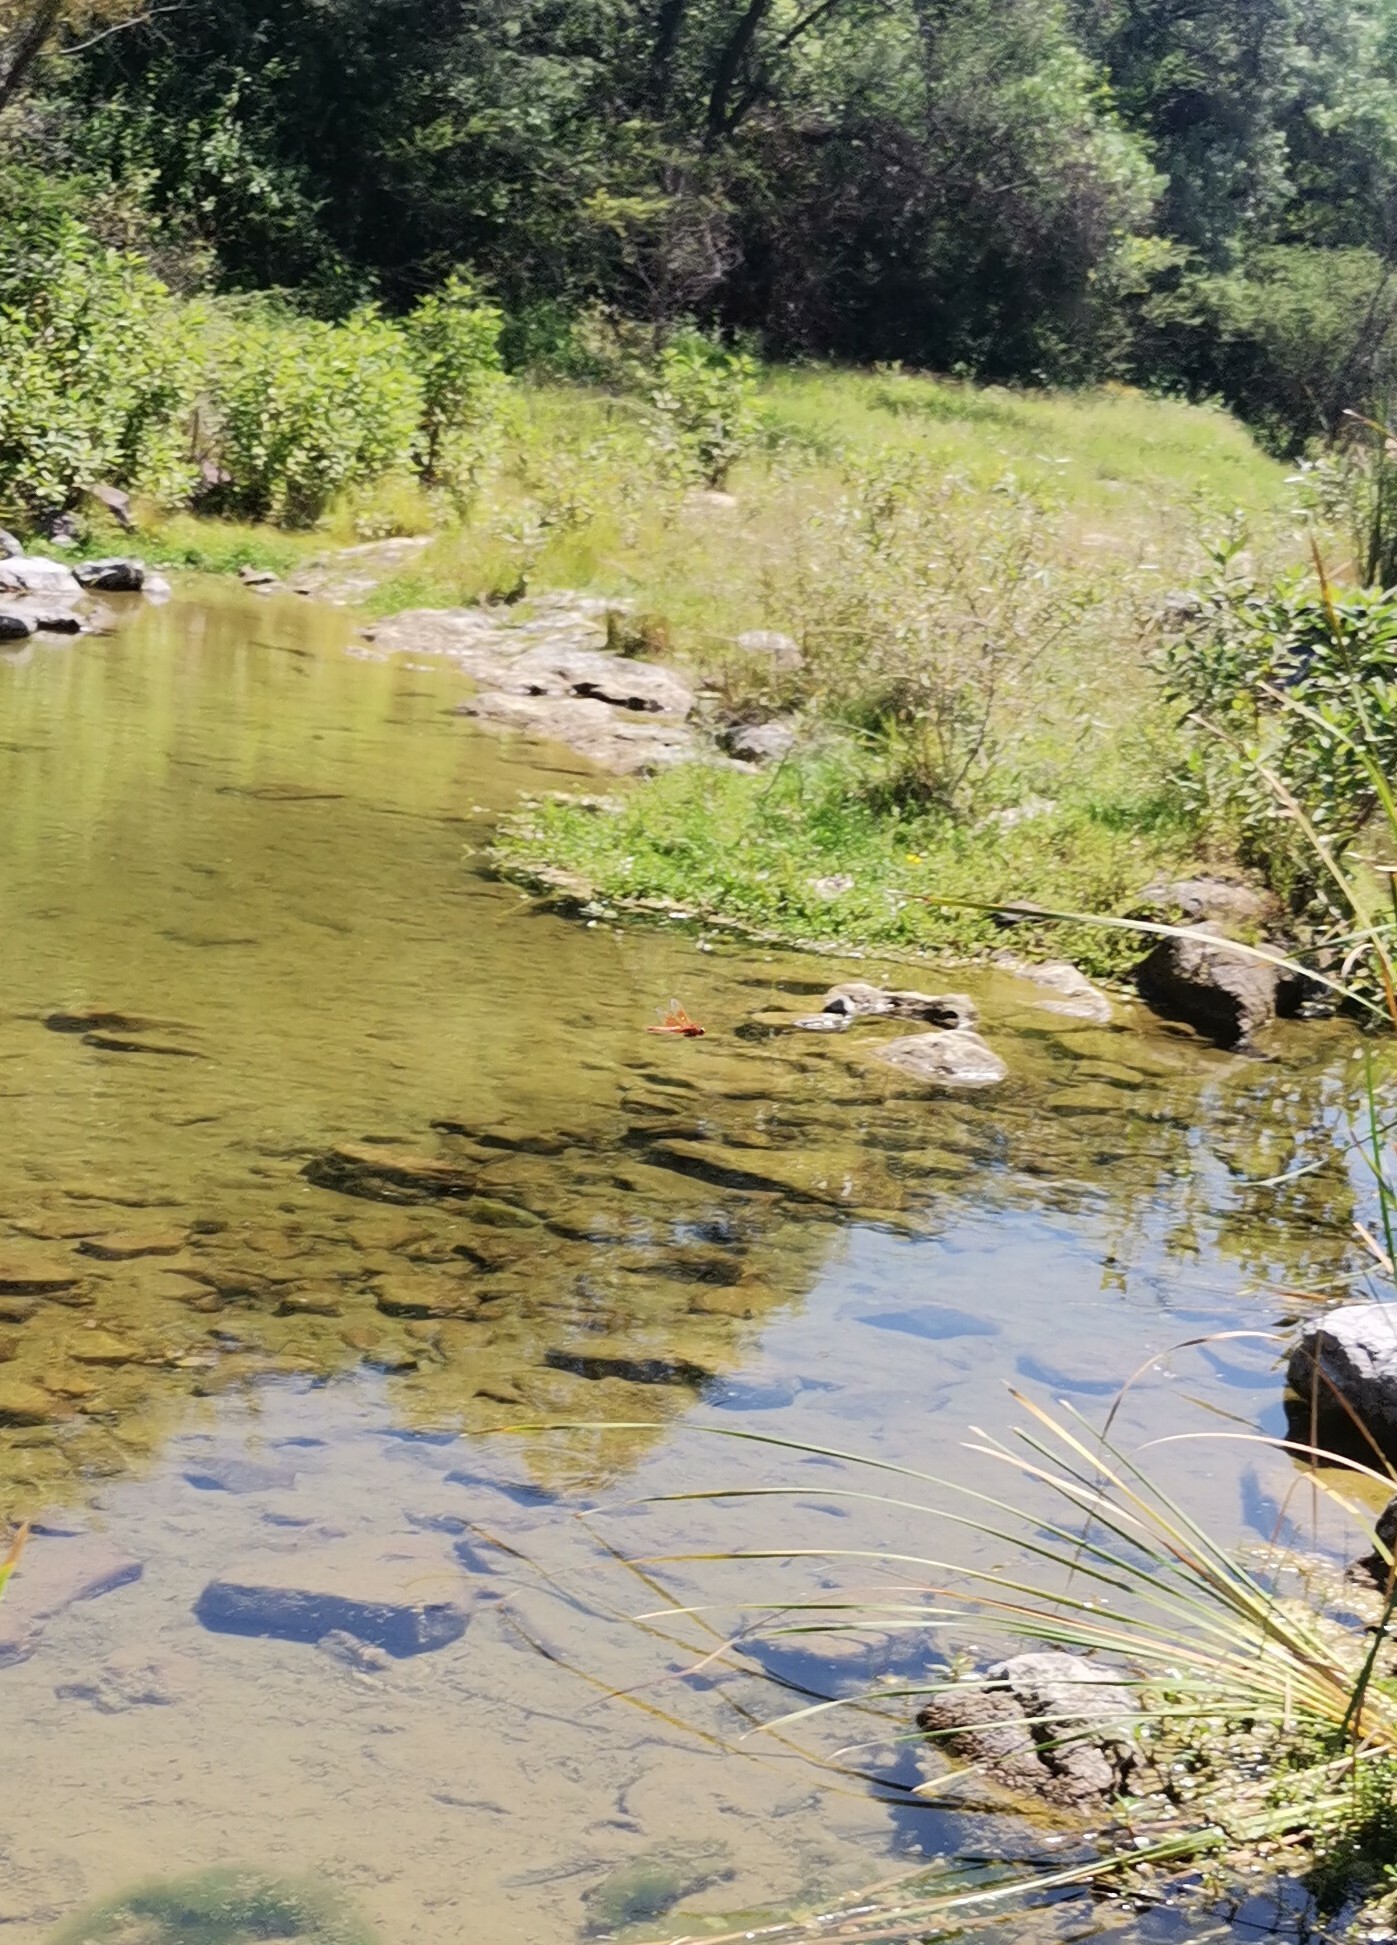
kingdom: Animalia
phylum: Arthropoda
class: Insecta
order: Odonata
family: Libellulidae
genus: Libellula
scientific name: Libellula saturata
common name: Flame skimmer
